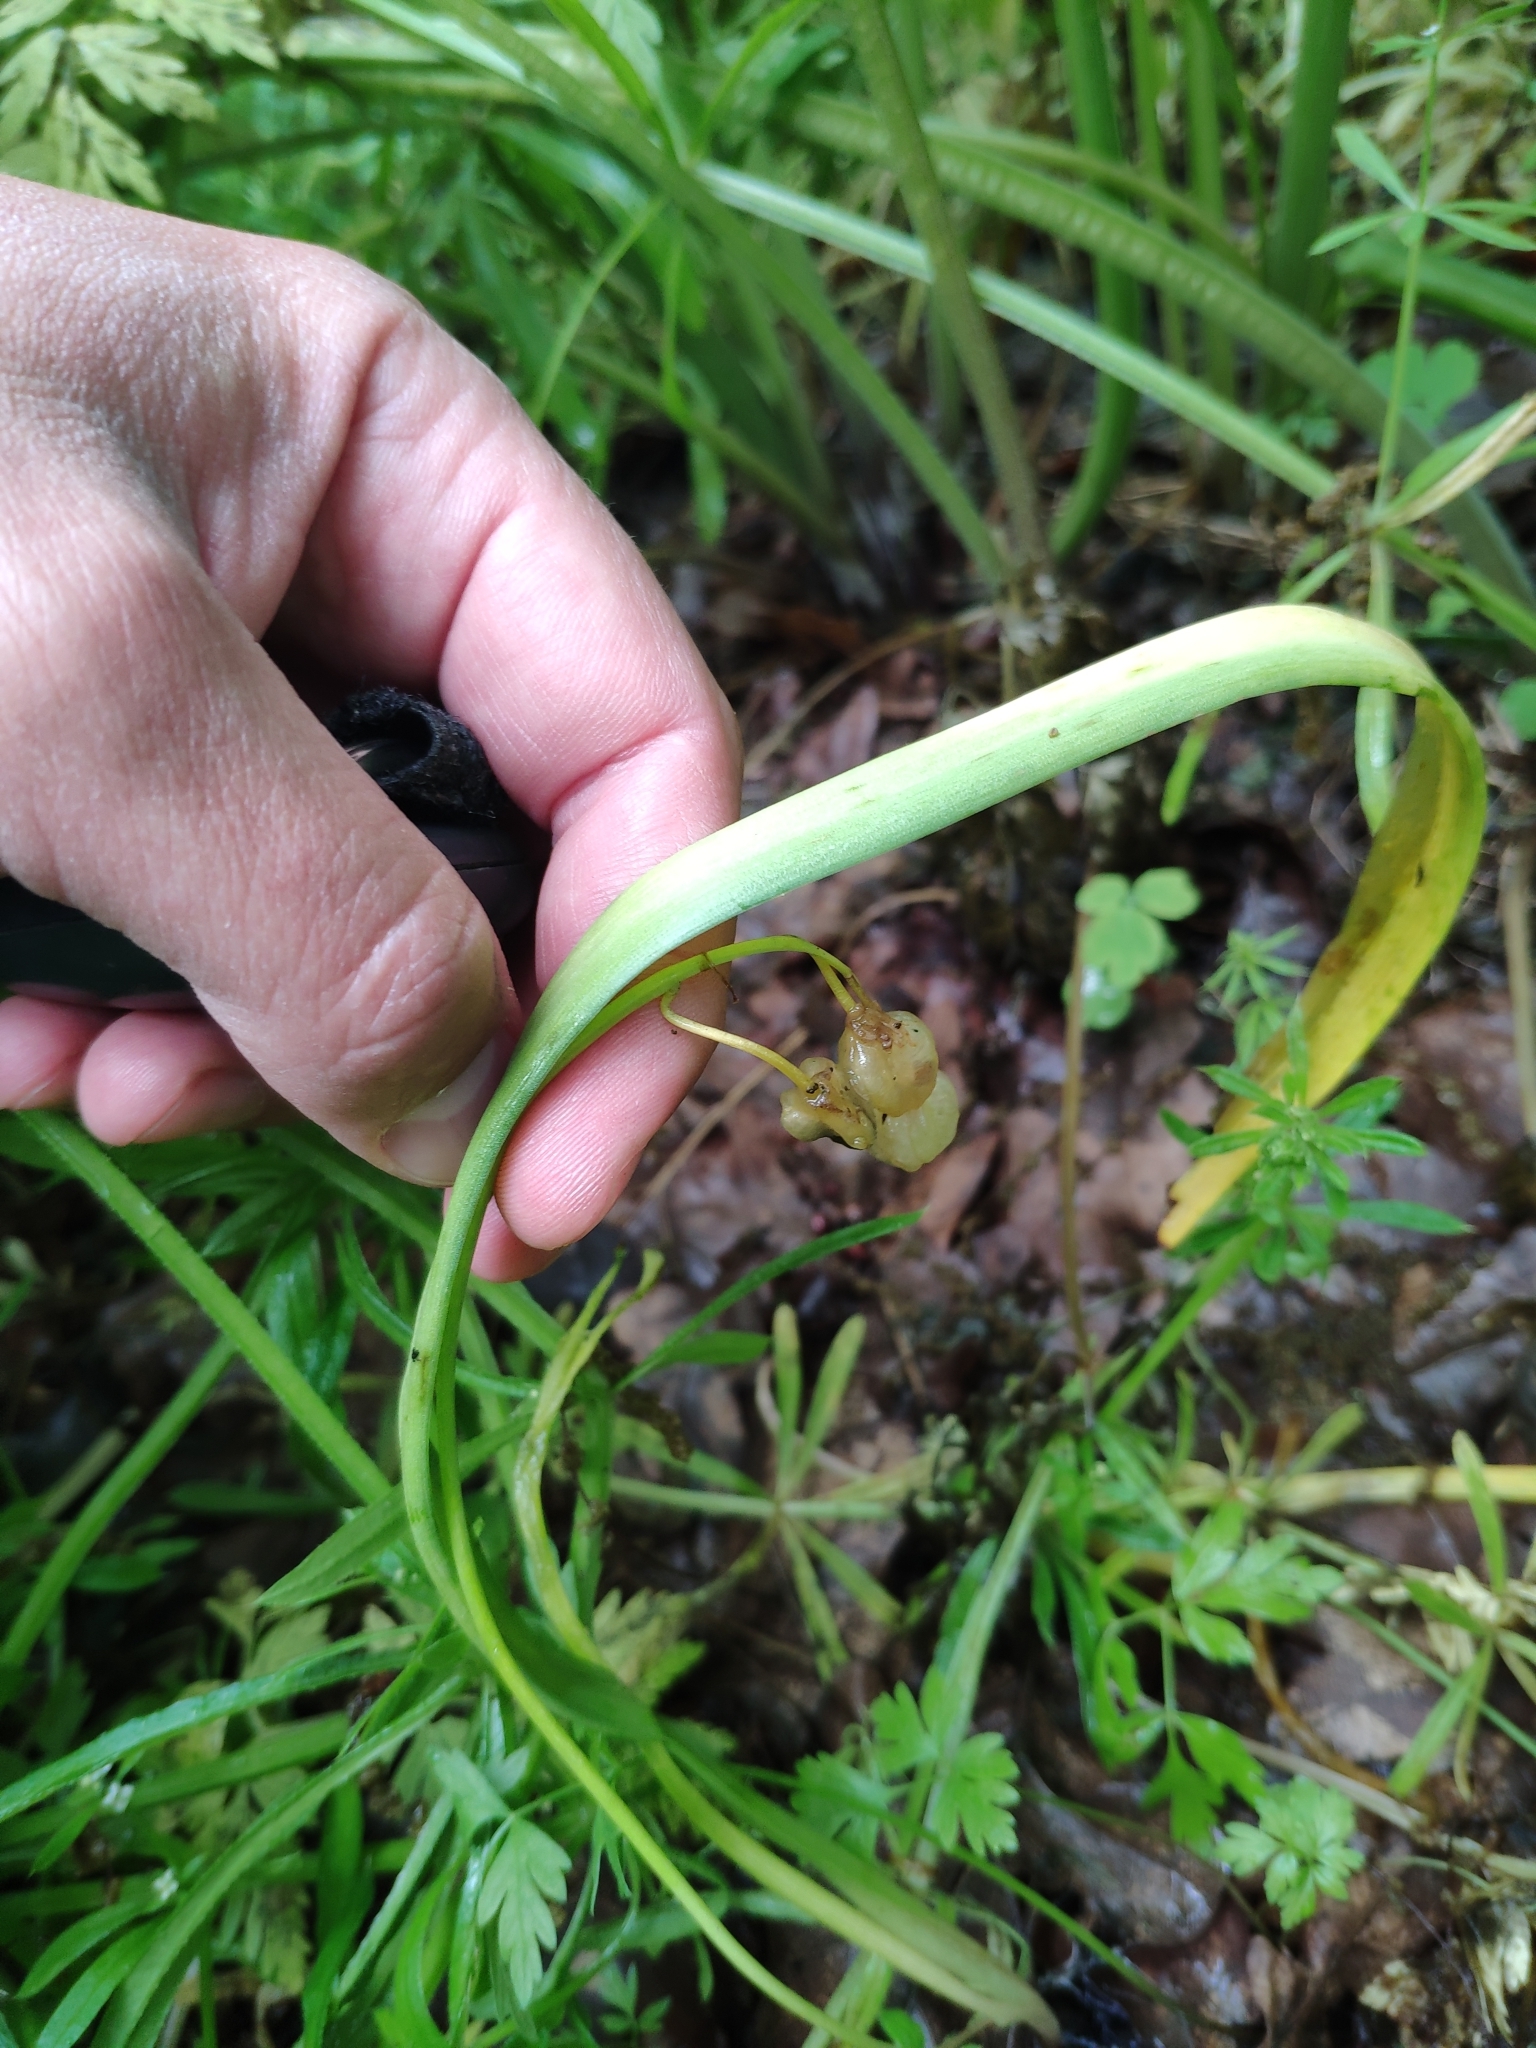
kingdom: Plantae
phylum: Tracheophyta
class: Liliopsida
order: Asparagales
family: Asparagaceae
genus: Scilla
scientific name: Scilla bifolia
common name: Alpine squill
